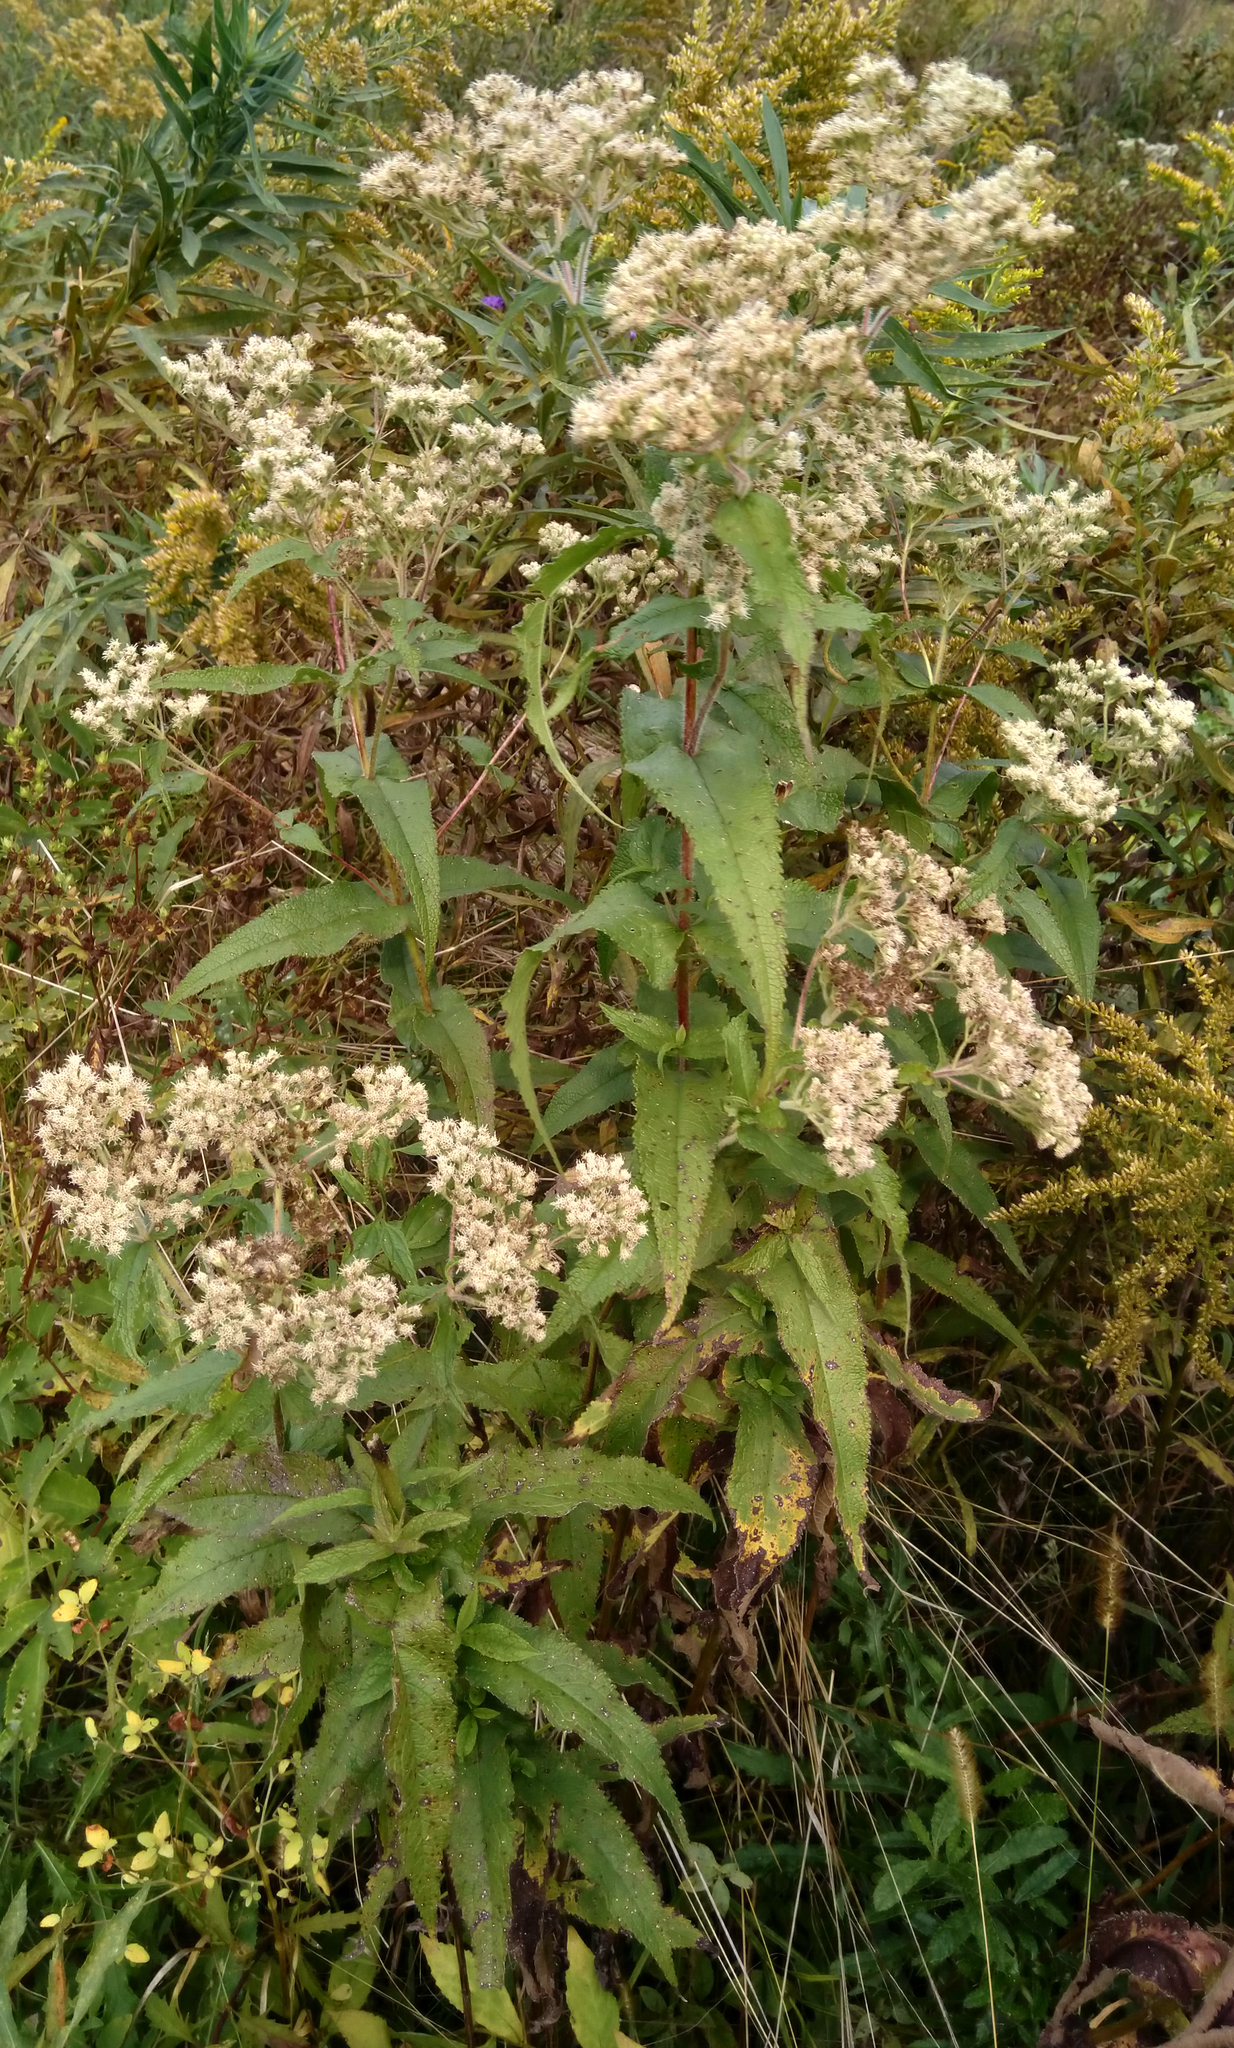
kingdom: Plantae
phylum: Tracheophyta
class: Magnoliopsida
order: Asterales
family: Asteraceae
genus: Eupatorium
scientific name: Eupatorium perfoliatum
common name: Boneset
